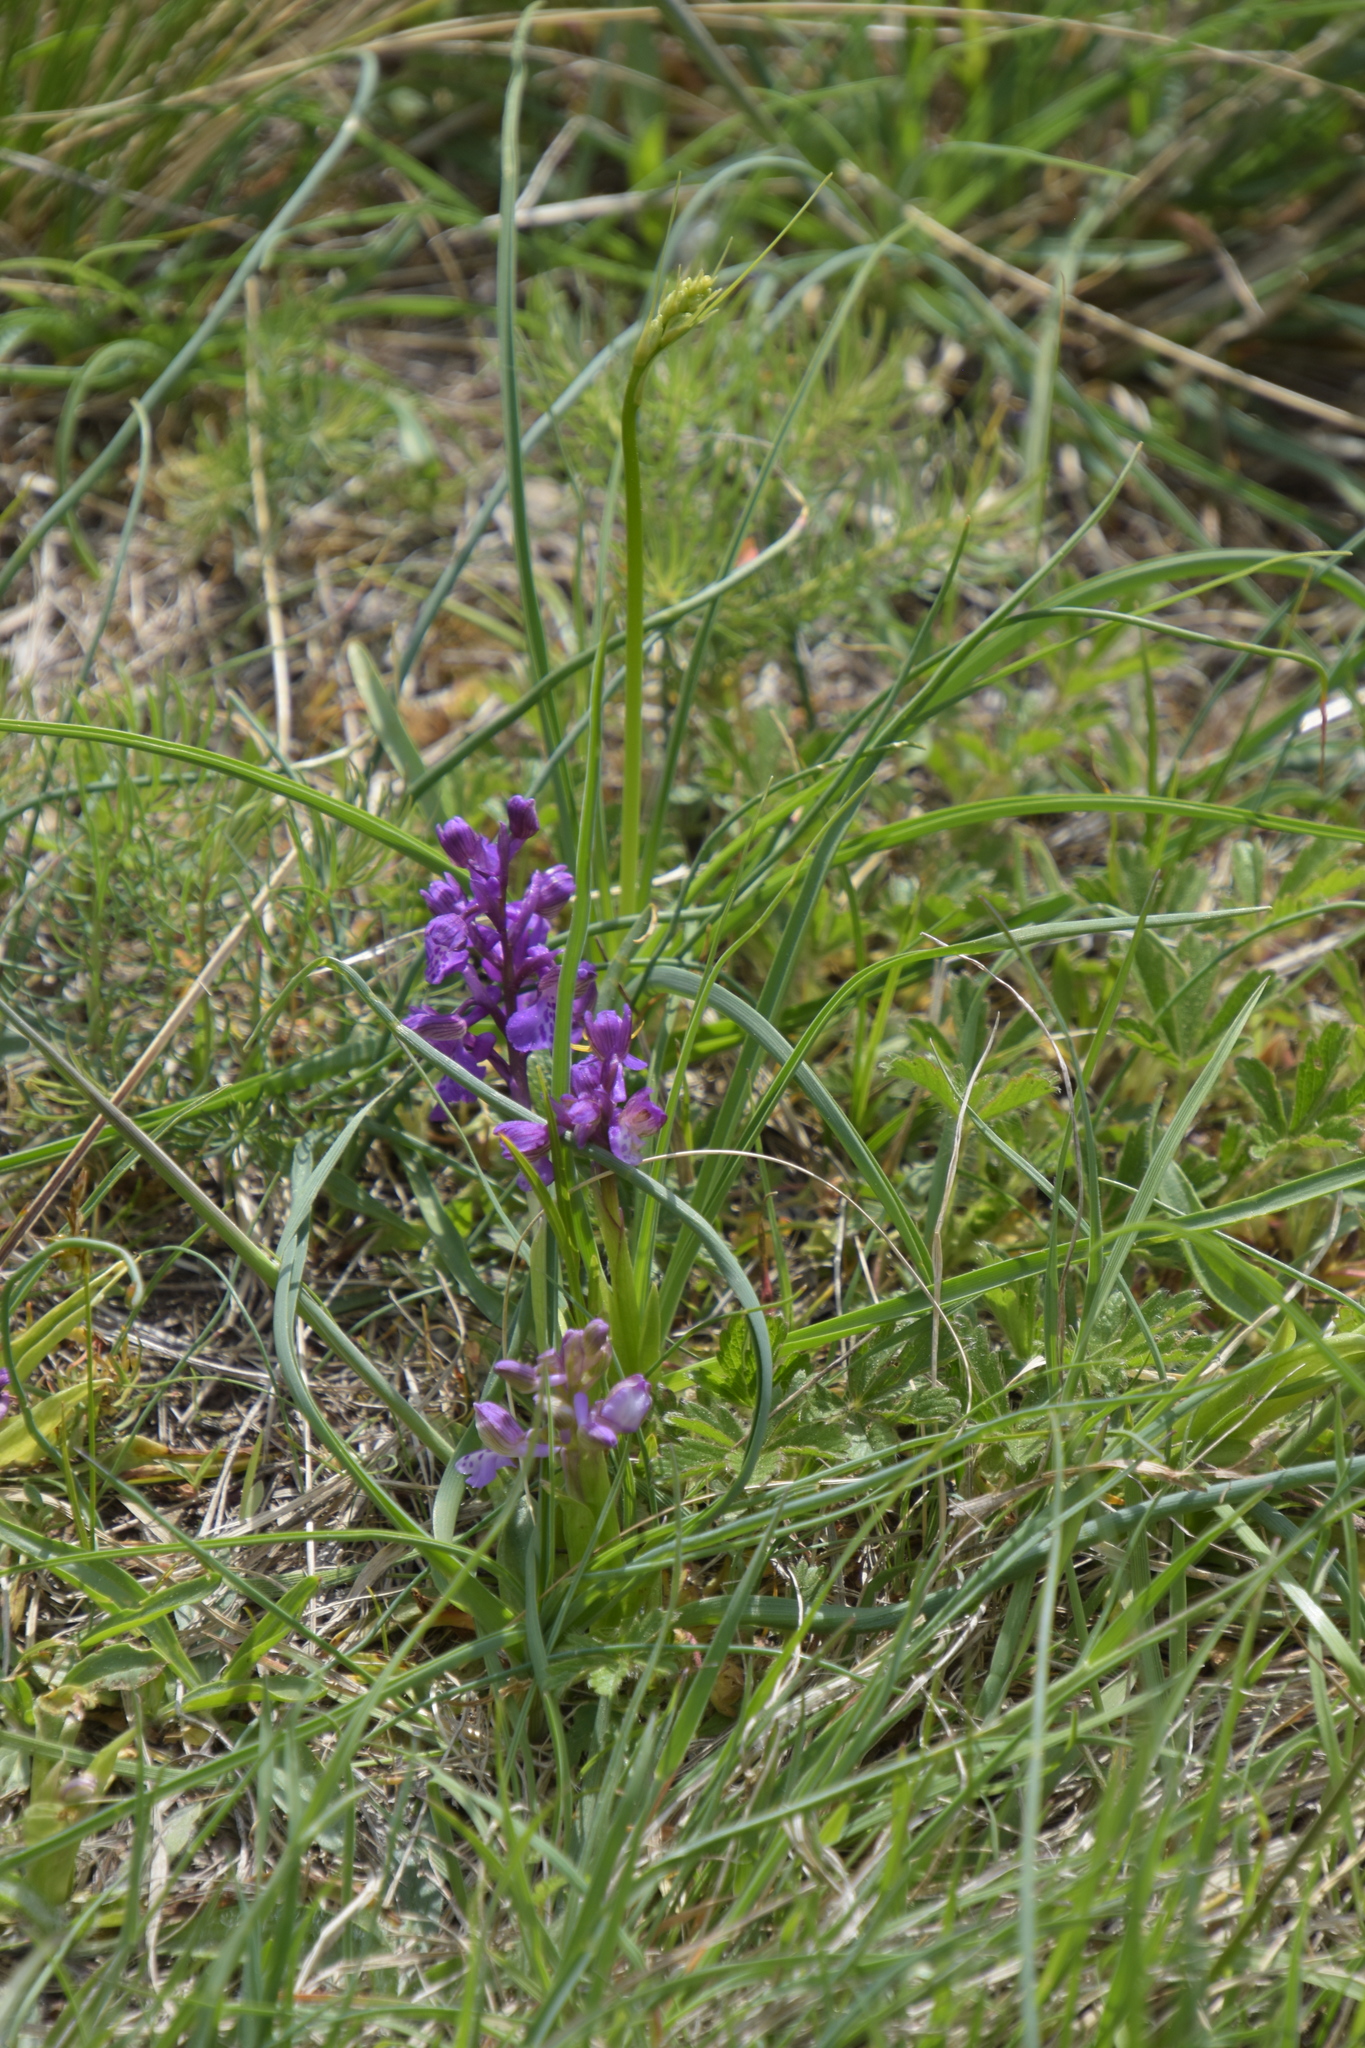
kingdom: Plantae
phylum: Tracheophyta
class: Liliopsida
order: Asparagales
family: Orchidaceae
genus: Anacamptis
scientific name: Anacamptis morio
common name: Green-winged orchid
